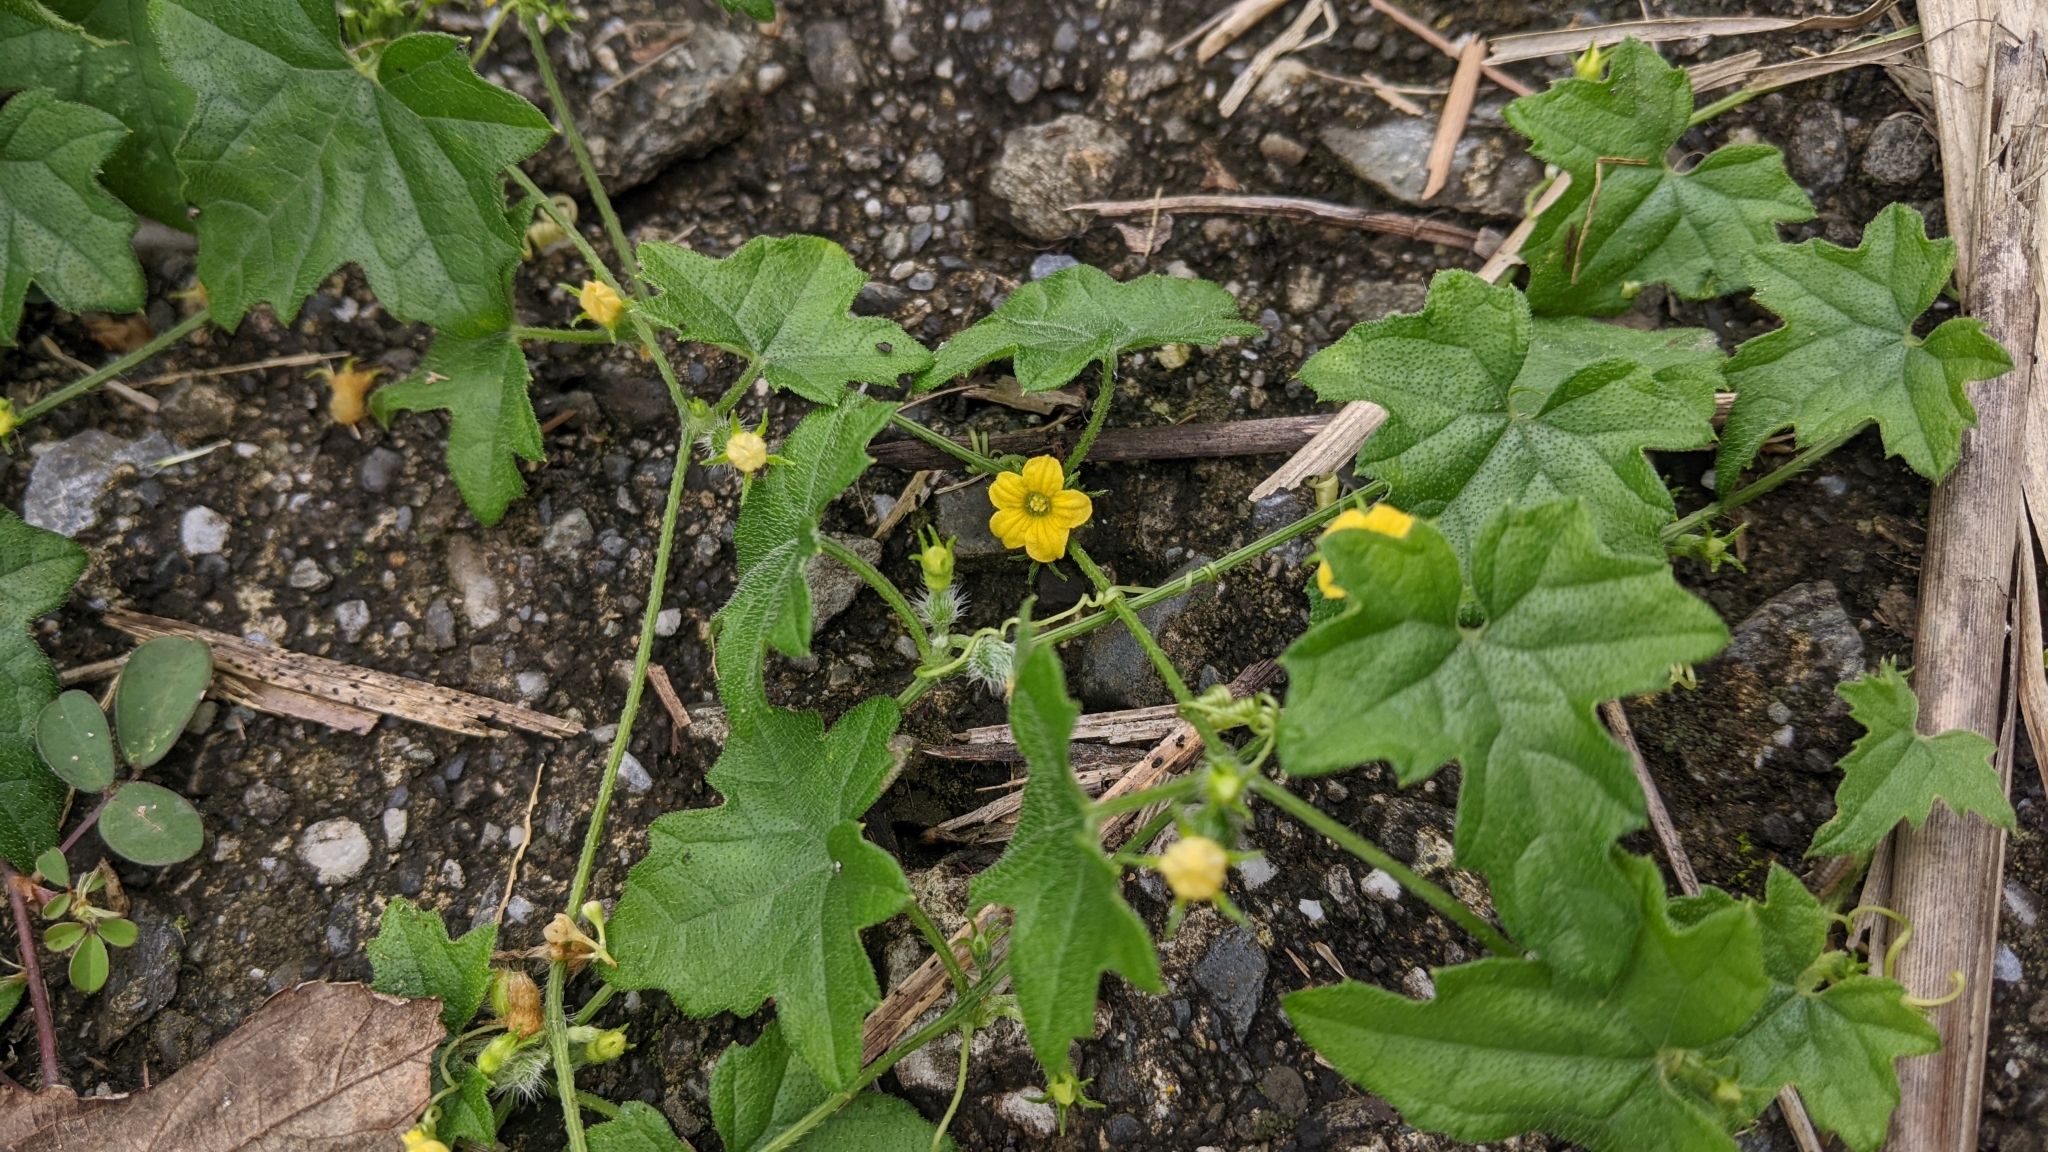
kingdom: Plantae
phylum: Tracheophyta
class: Magnoliopsida
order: Cucurbitales
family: Cucurbitaceae
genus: Cucumis
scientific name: Cucumis maderaspatanus
